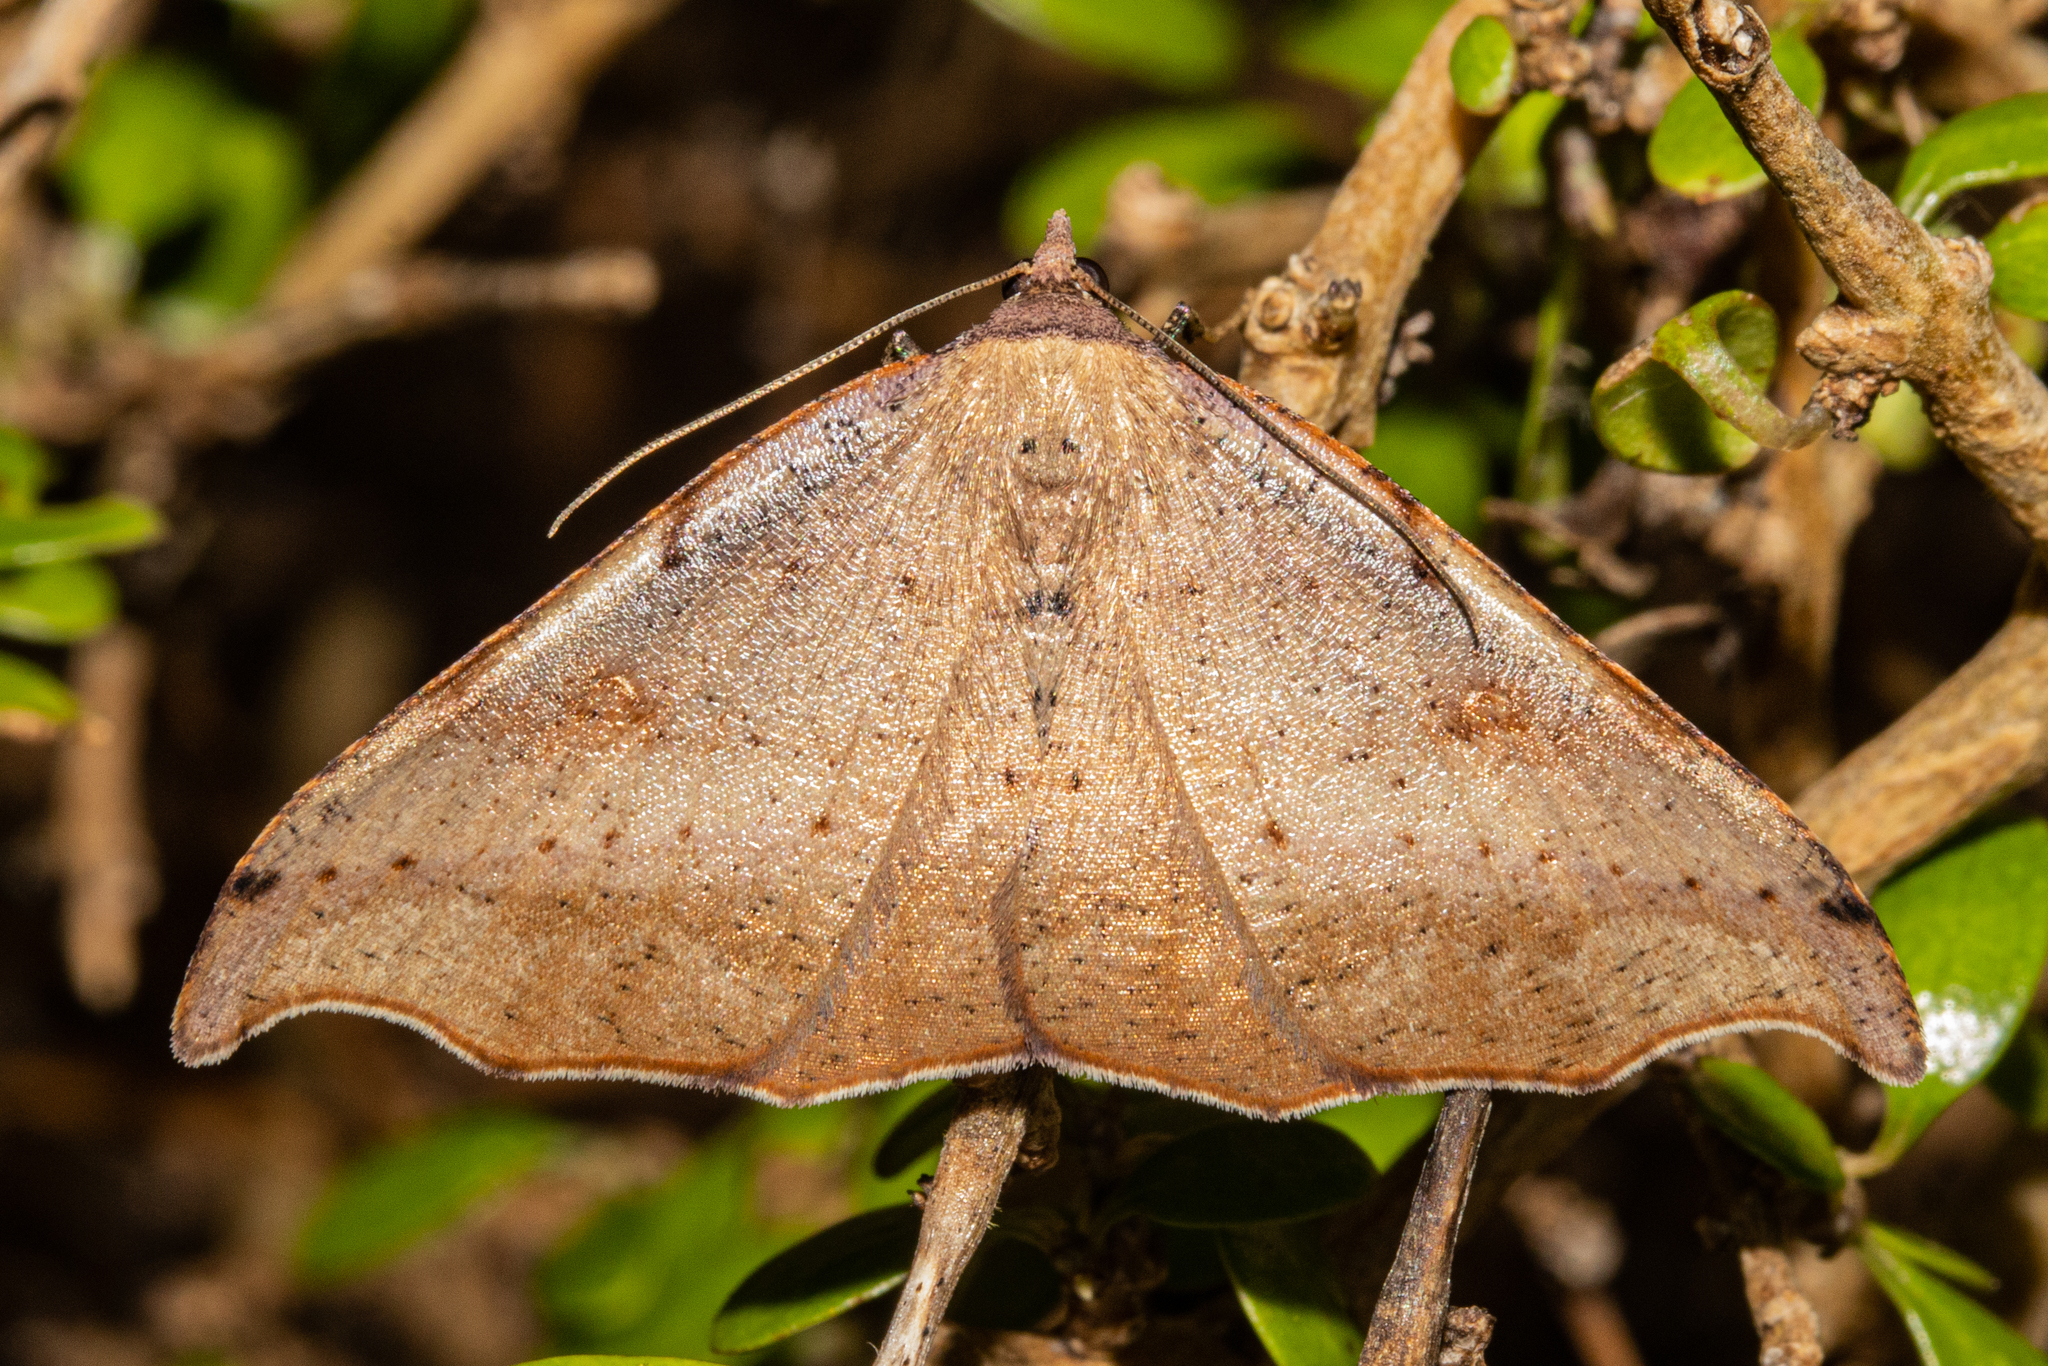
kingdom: Animalia
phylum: Arthropoda
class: Insecta
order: Lepidoptera
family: Geometridae
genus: Sarisa
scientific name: Sarisa muriferata
